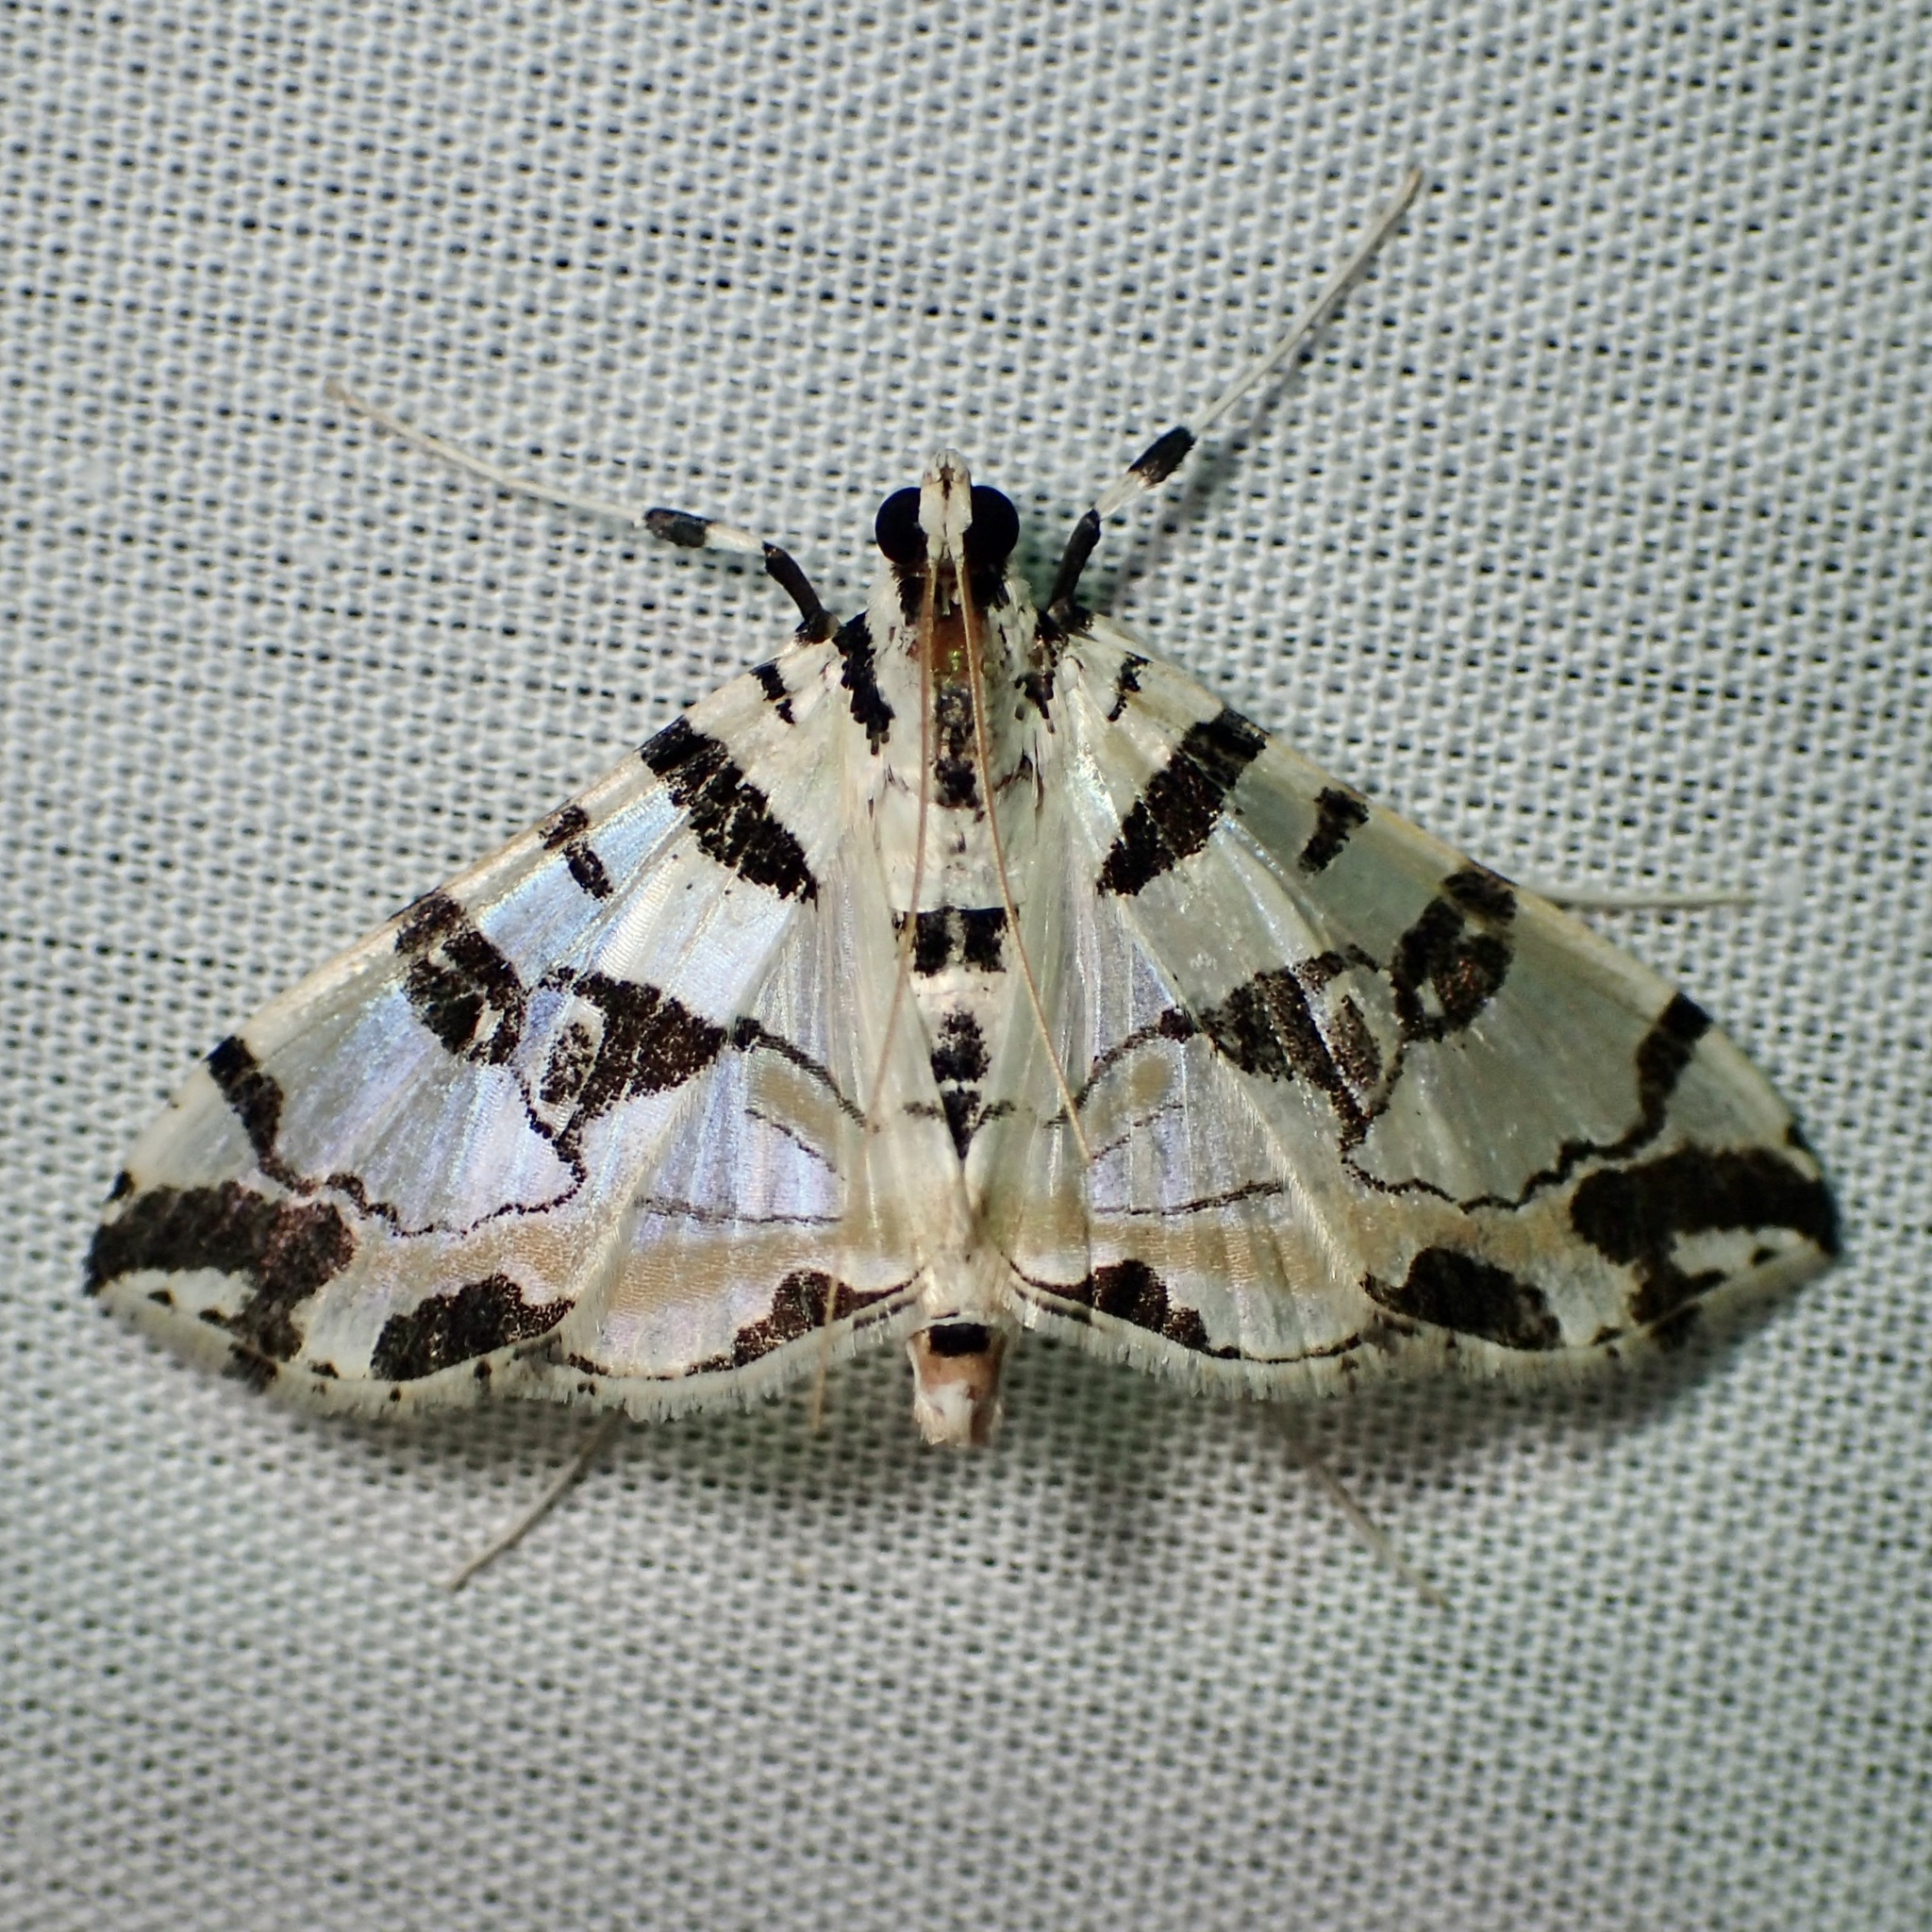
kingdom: Animalia
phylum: Arthropoda
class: Insecta
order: Lepidoptera
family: Crambidae
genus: Conchylodes
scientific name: Conchylodes salamisalis
